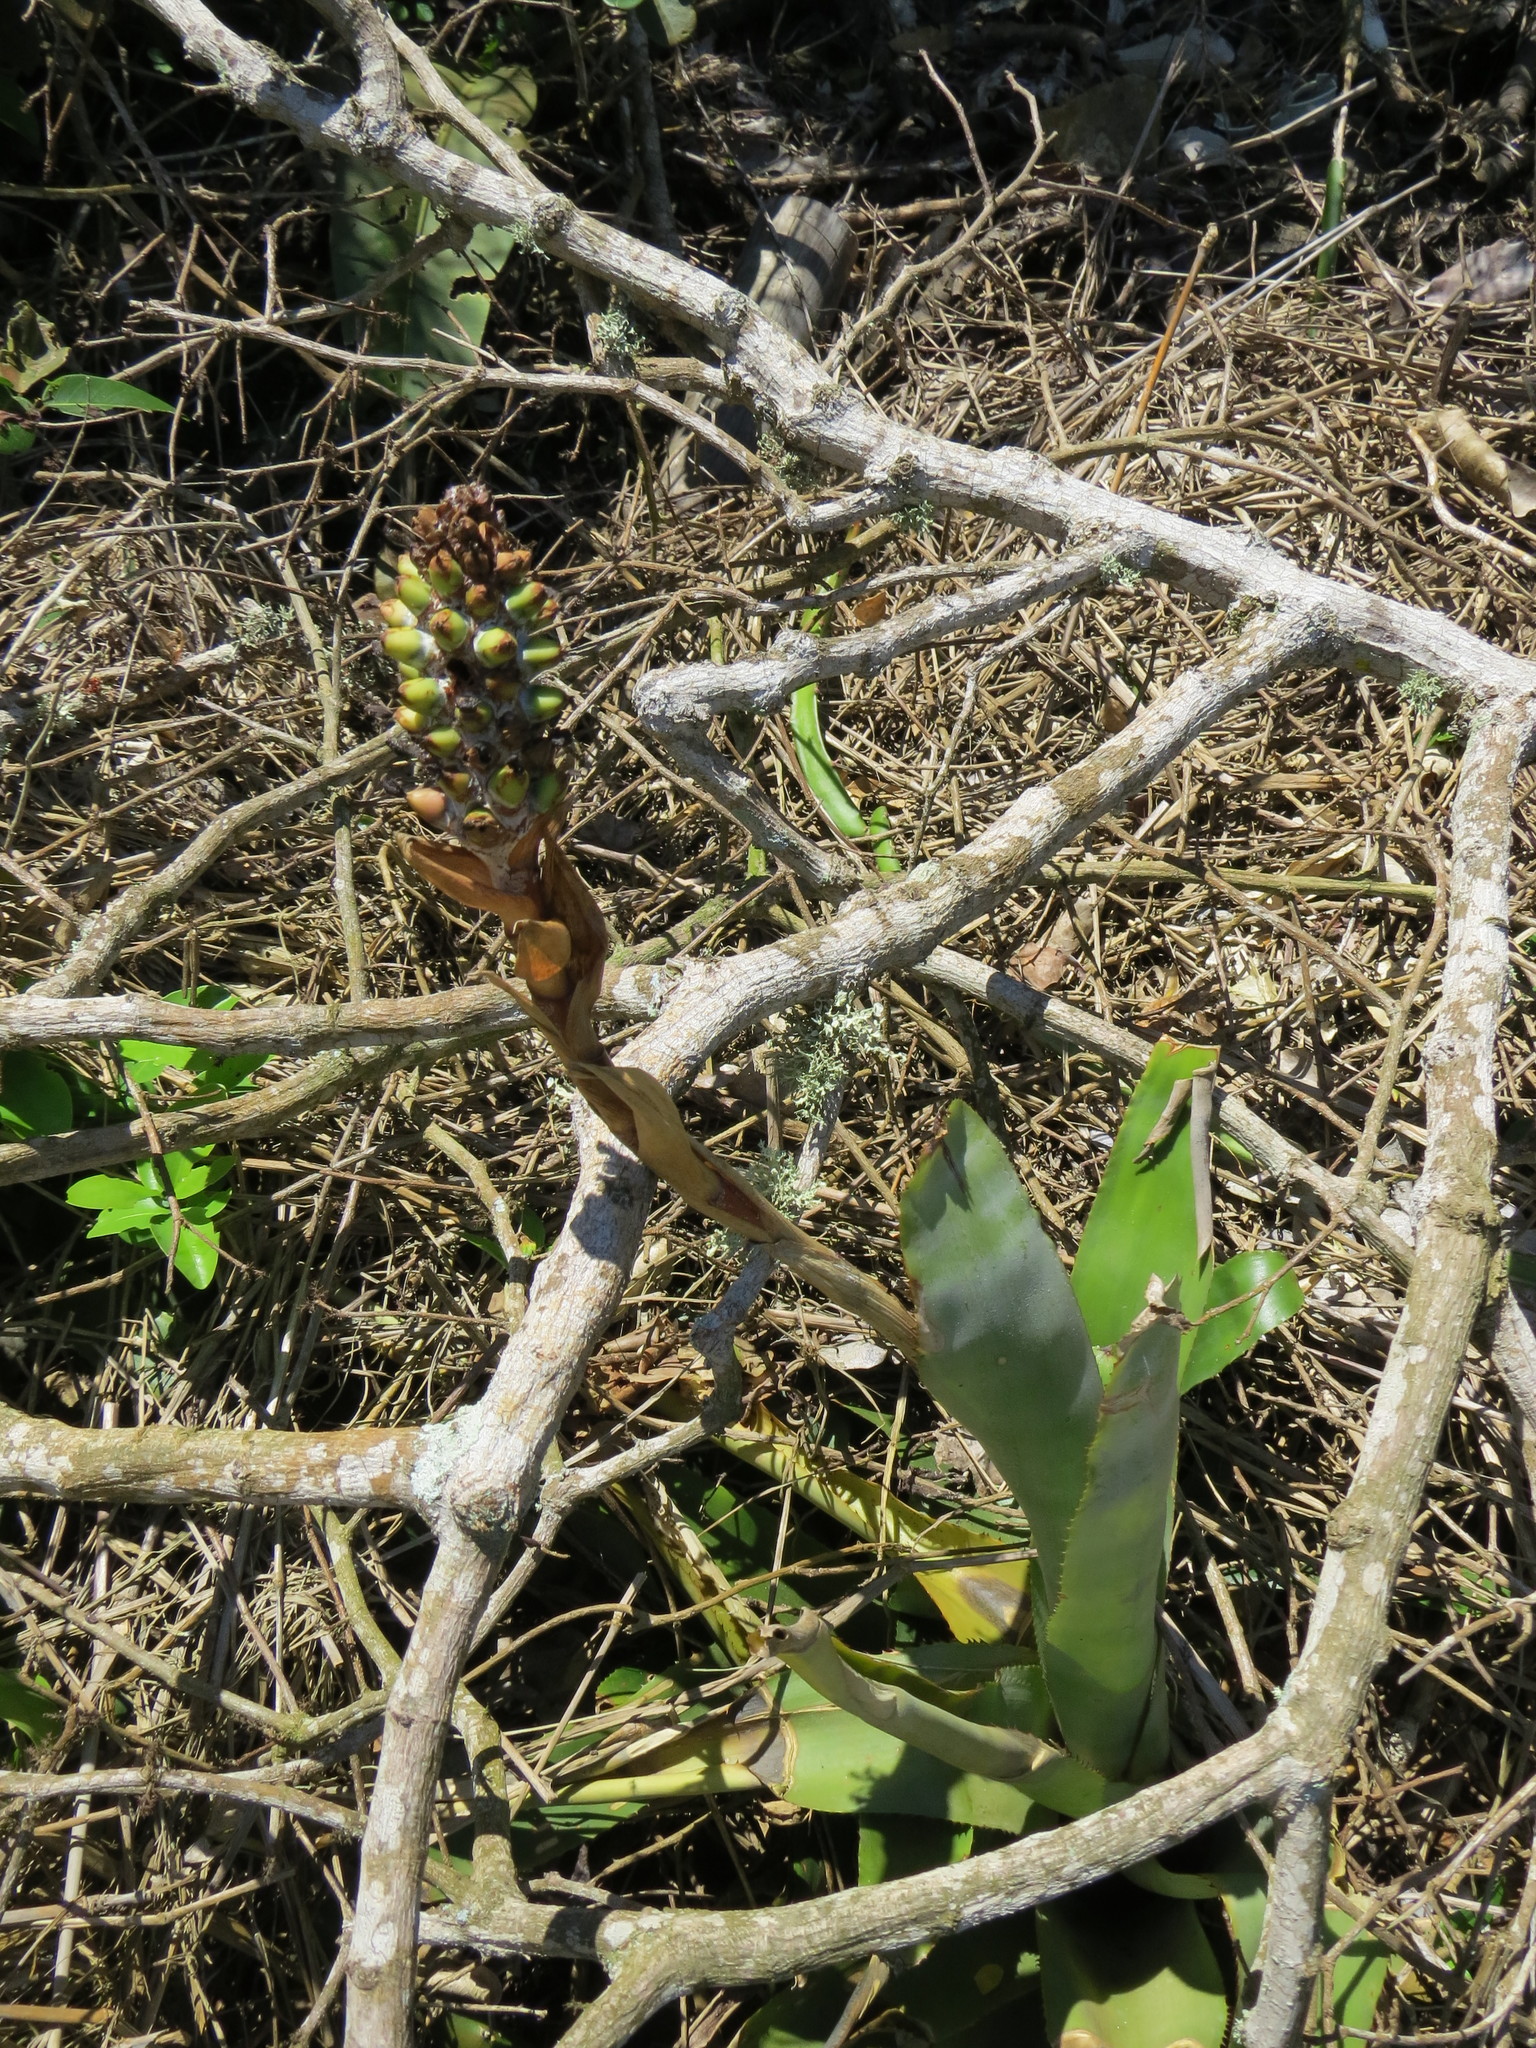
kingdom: Plantae
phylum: Tracheophyta
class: Liliopsida
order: Poales
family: Bromeliaceae
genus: Aechmea
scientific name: Aechmea maasii
